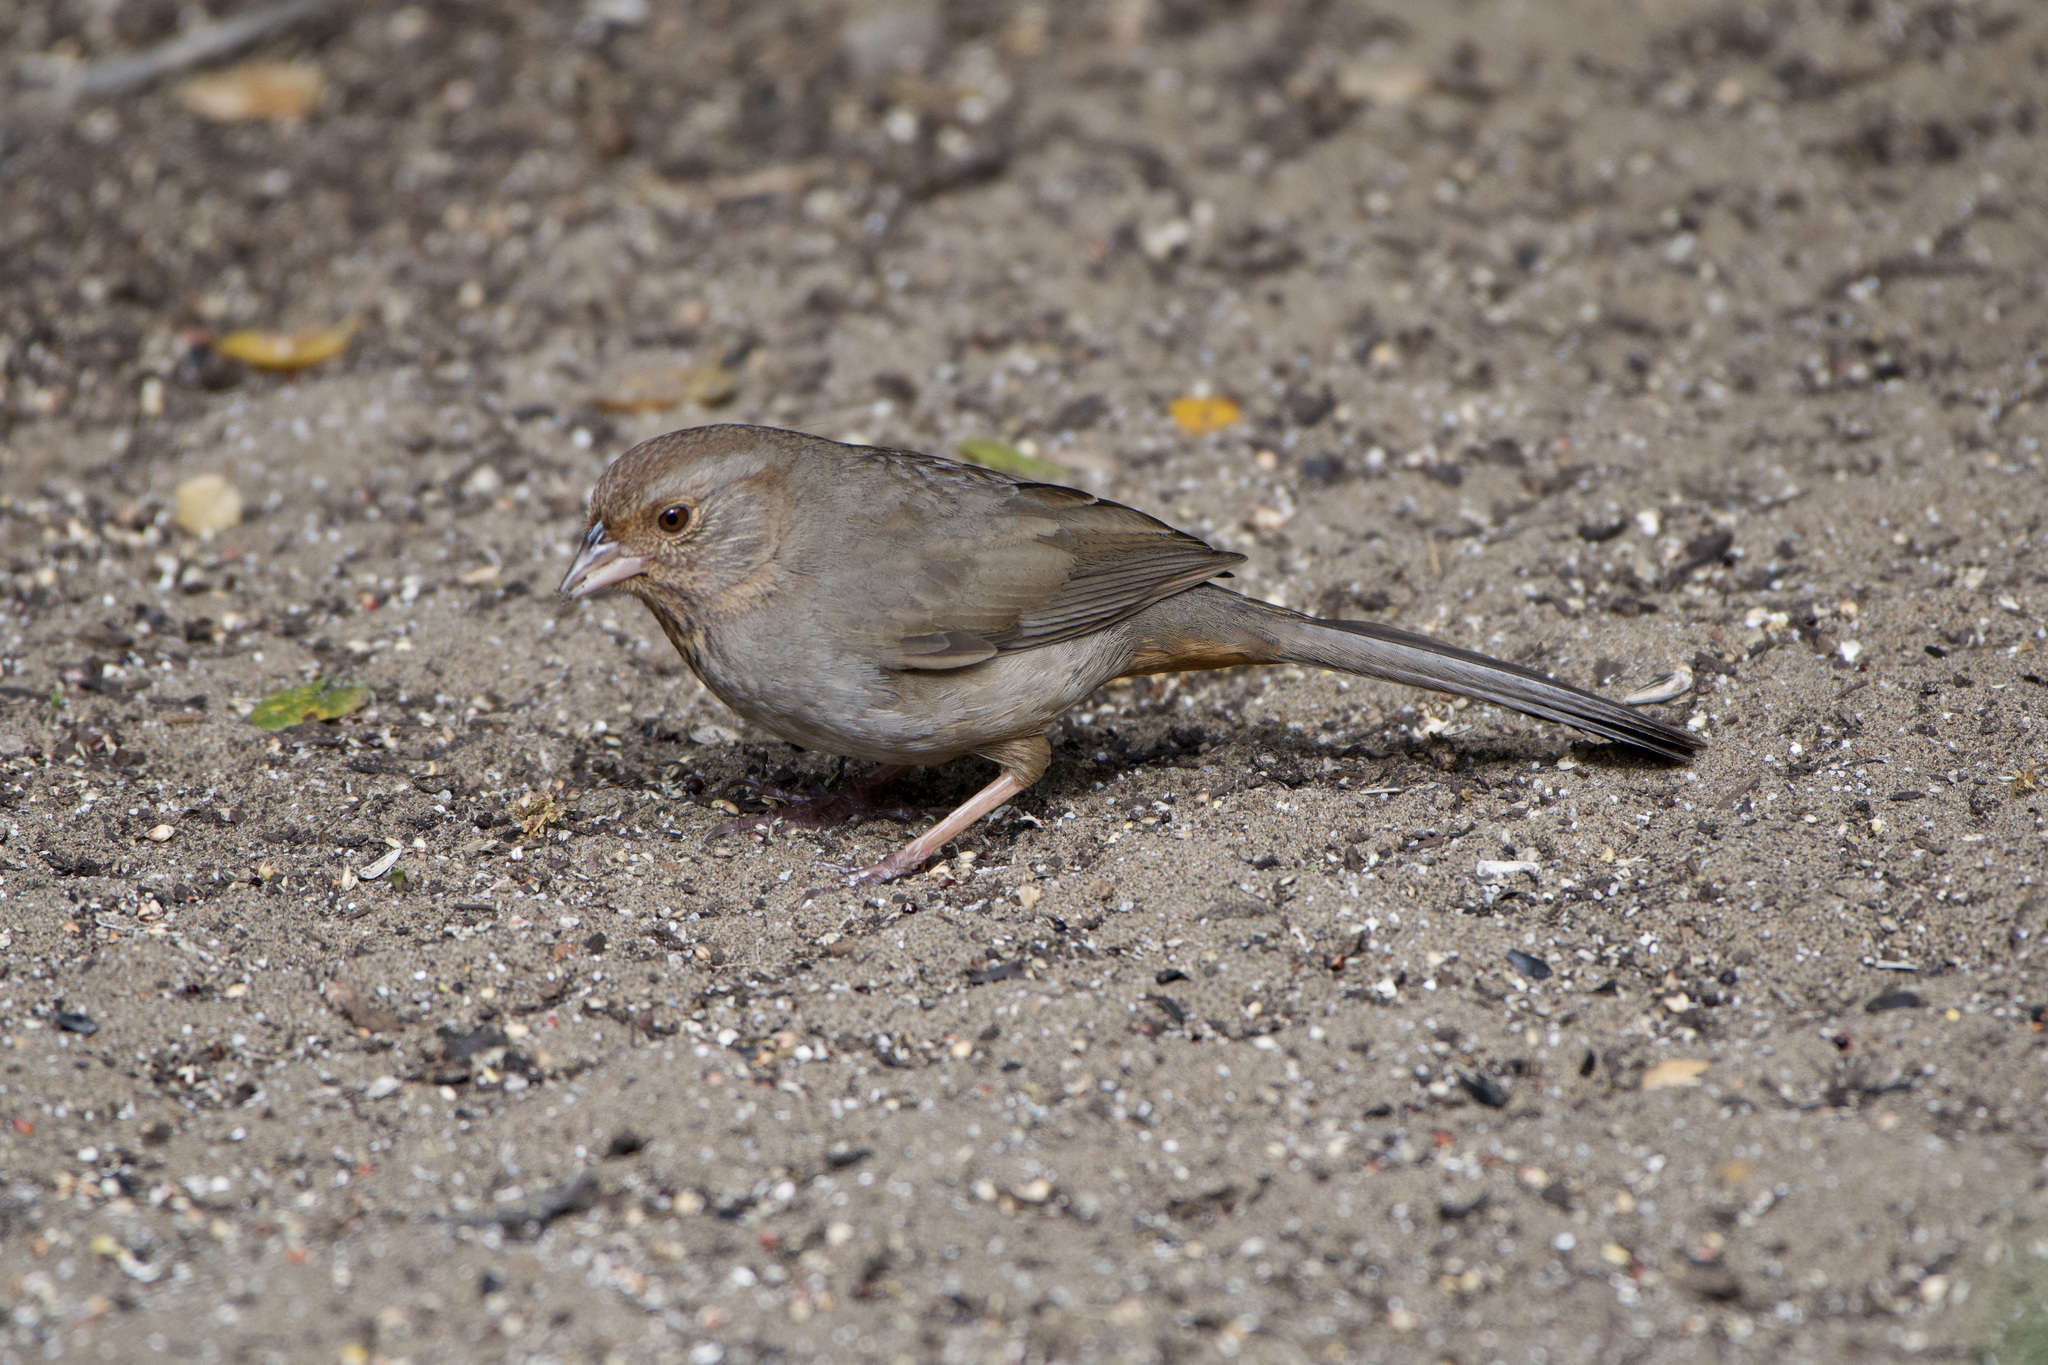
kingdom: Animalia
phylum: Chordata
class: Aves
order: Passeriformes
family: Passerellidae
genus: Melozone
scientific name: Melozone crissalis
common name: California towhee
